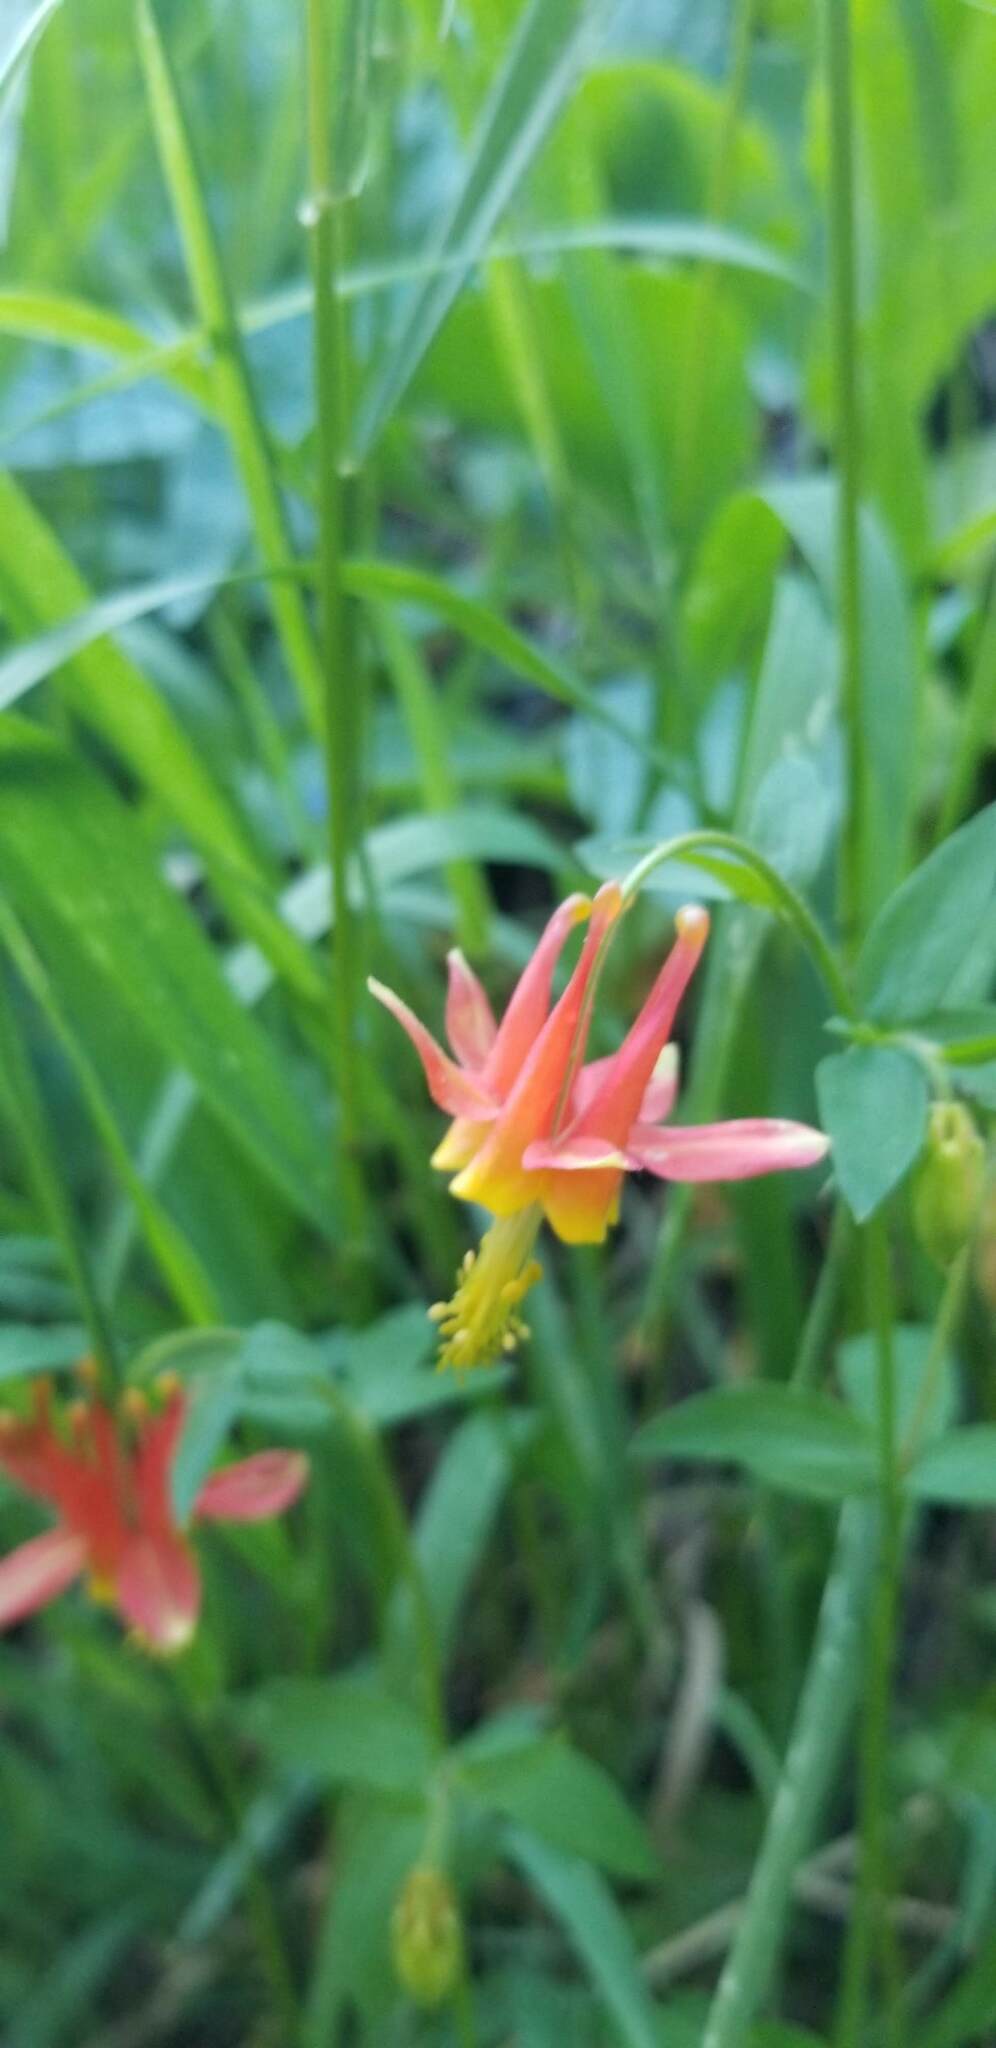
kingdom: Plantae
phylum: Tracheophyta
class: Magnoliopsida
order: Ranunculales
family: Ranunculaceae
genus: Aquilegia
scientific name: Aquilegia formosa
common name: Sitka columbine
